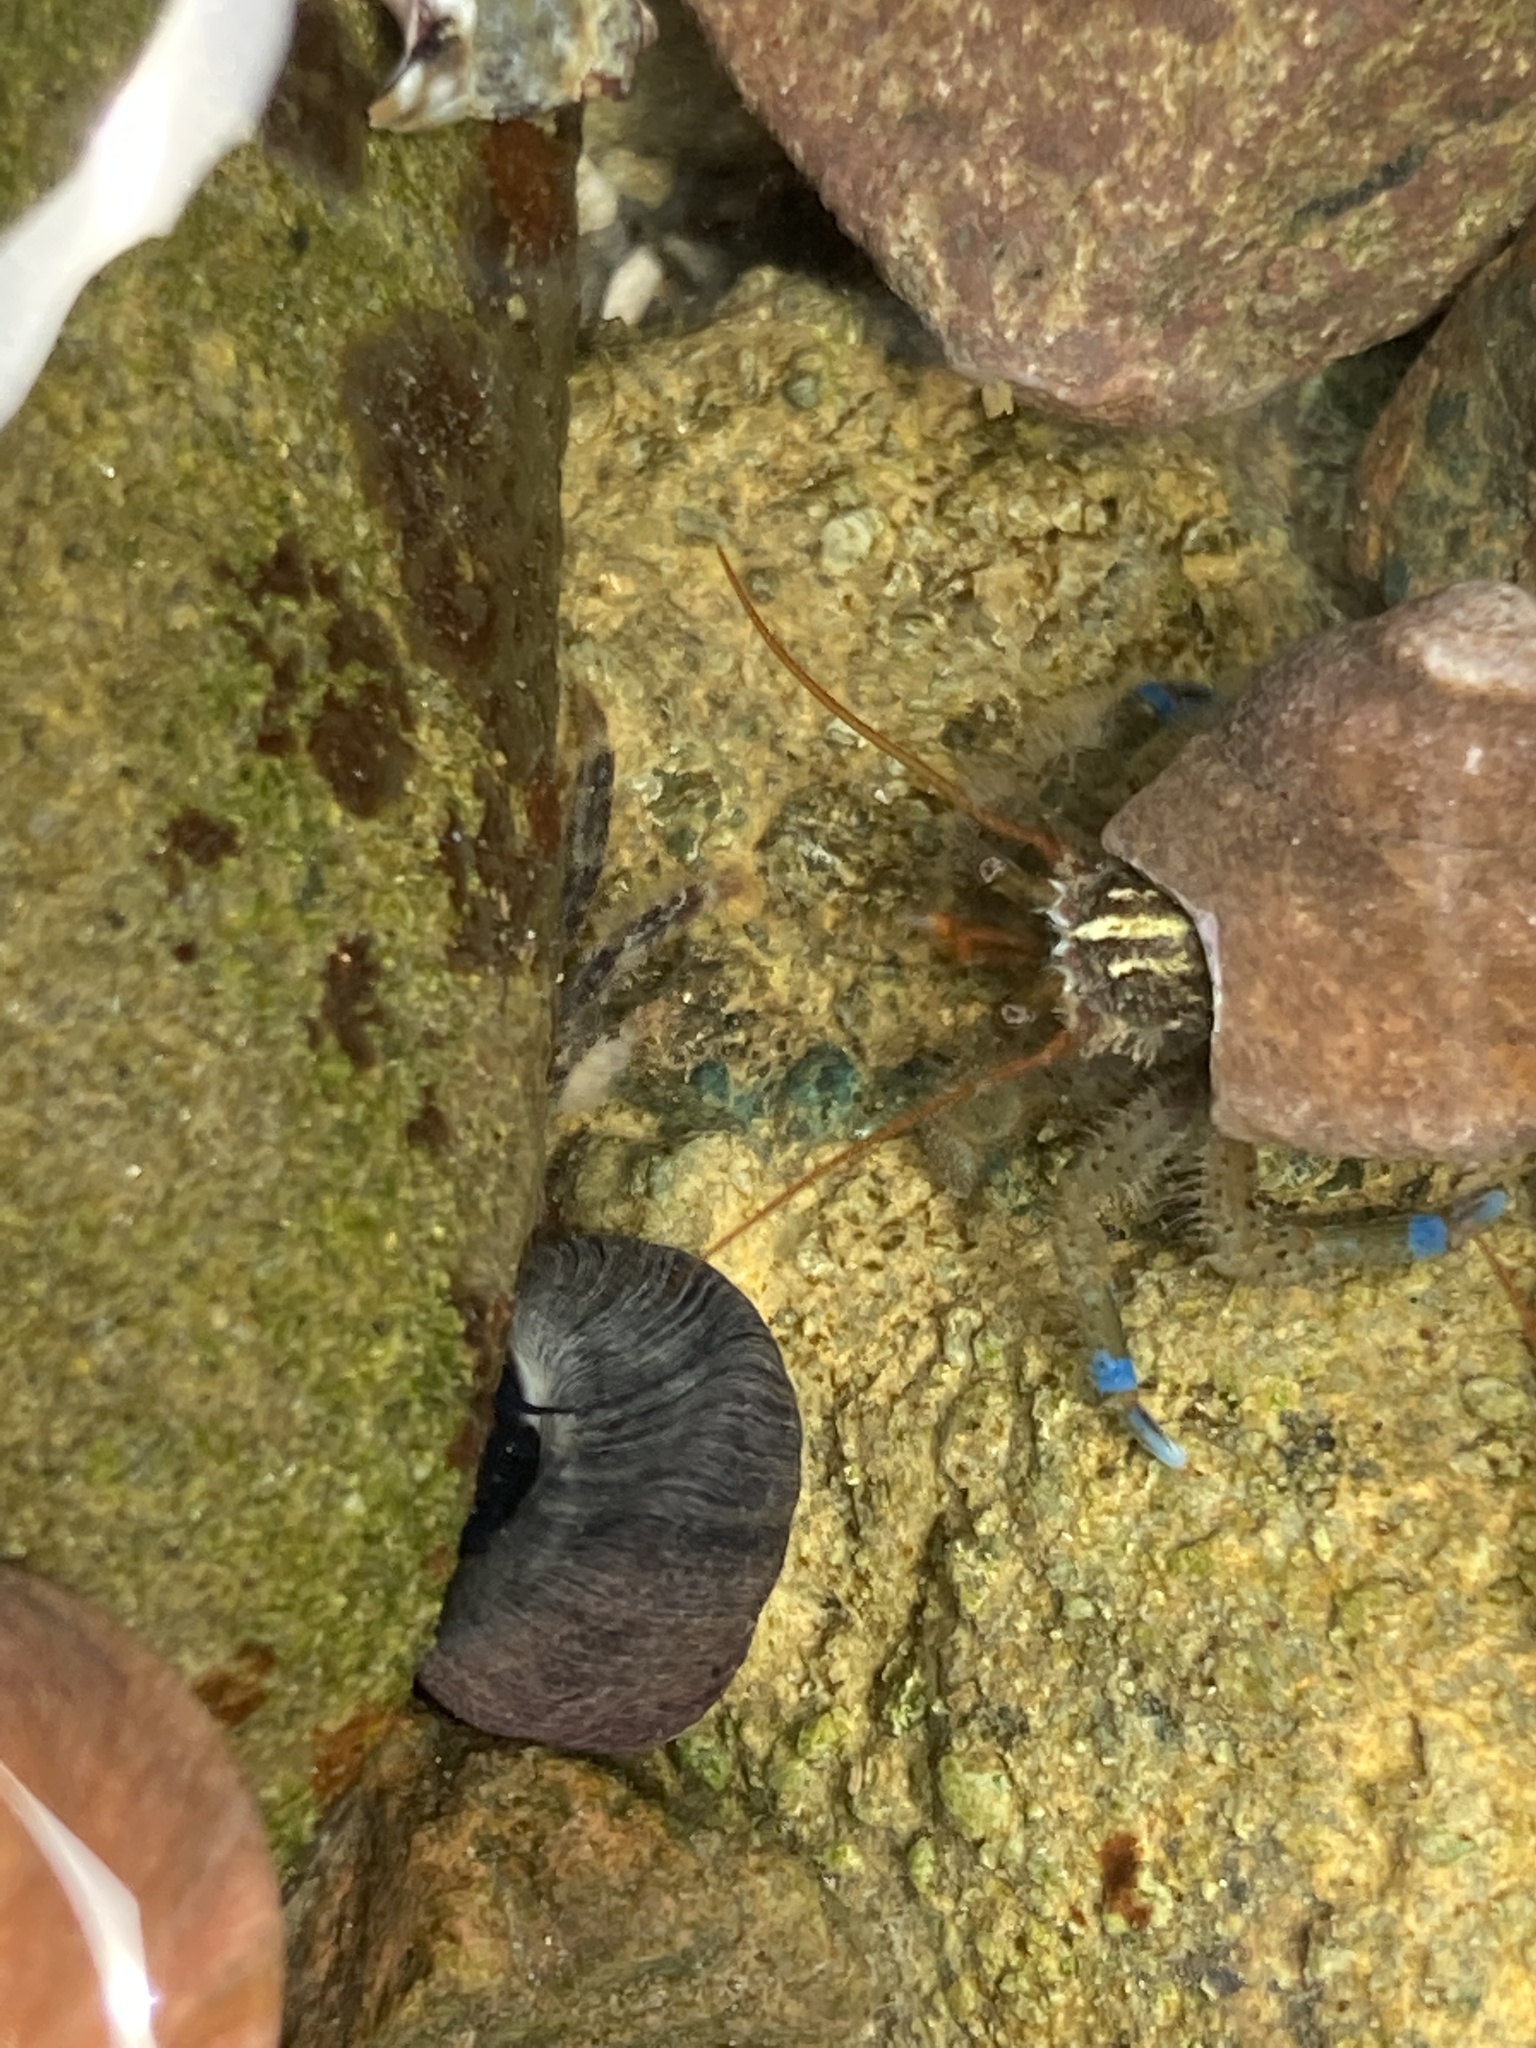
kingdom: Animalia
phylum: Arthropoda
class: Malacostraca
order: Decapoda
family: Paguridae
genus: Pagurus
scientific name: Pagurus samuelis
